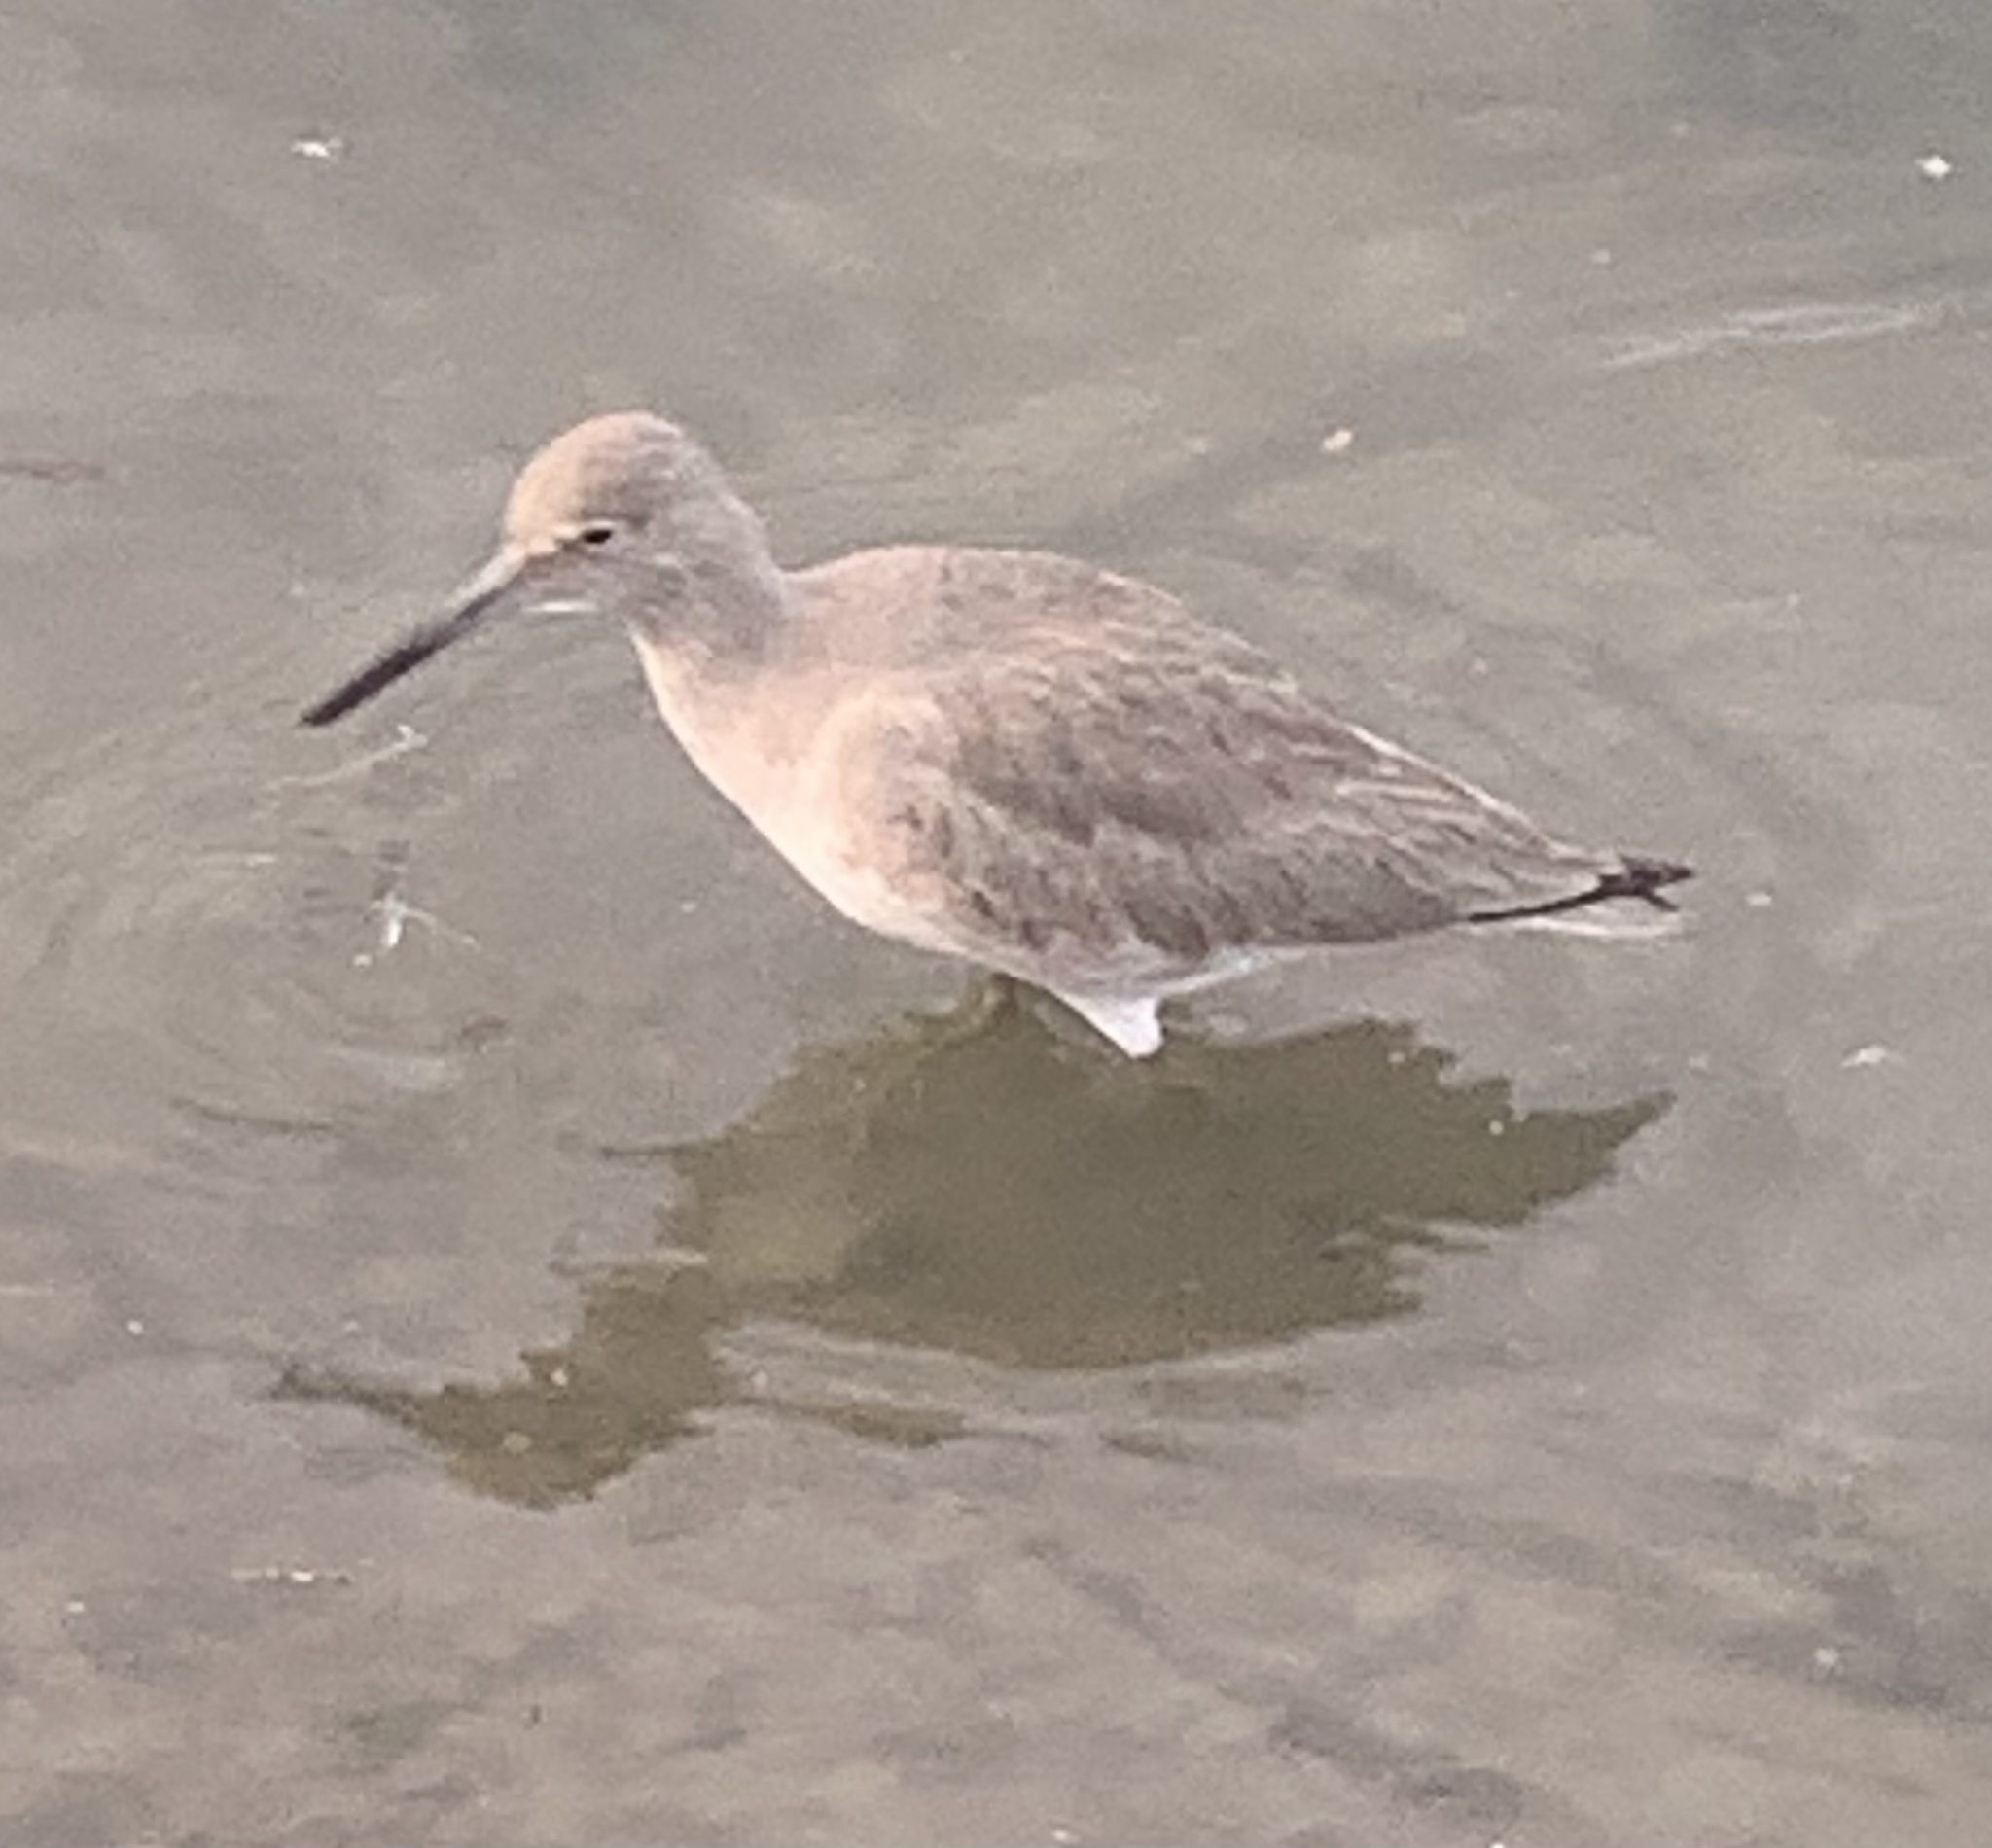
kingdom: Animalia
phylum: Chordata
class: Aves
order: Charadriiformes
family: Scolopacidae
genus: Tringa
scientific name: Tringa semipalmata
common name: Willet
